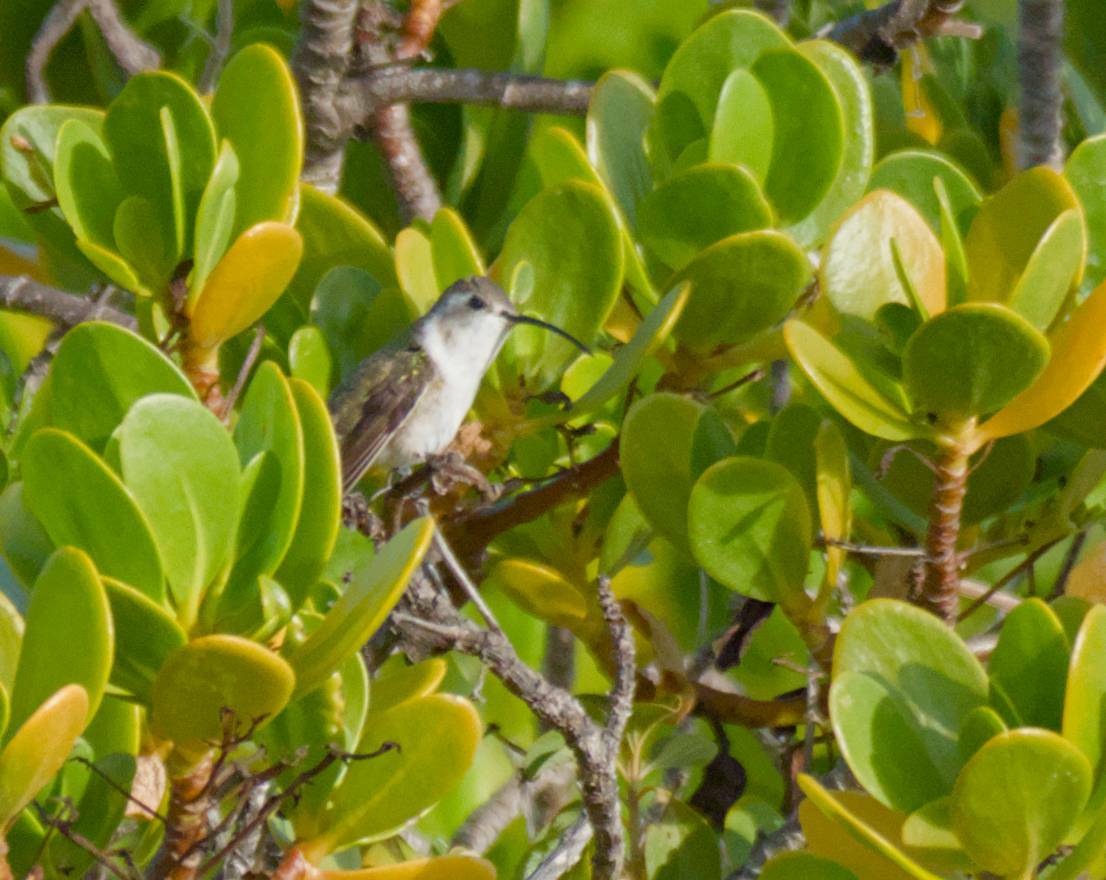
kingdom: Animalia
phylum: Chordata
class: Aves
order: Apodiformes
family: Trochilidae
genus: Doricha
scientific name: Doricha eliza
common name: Mexican sheartail
